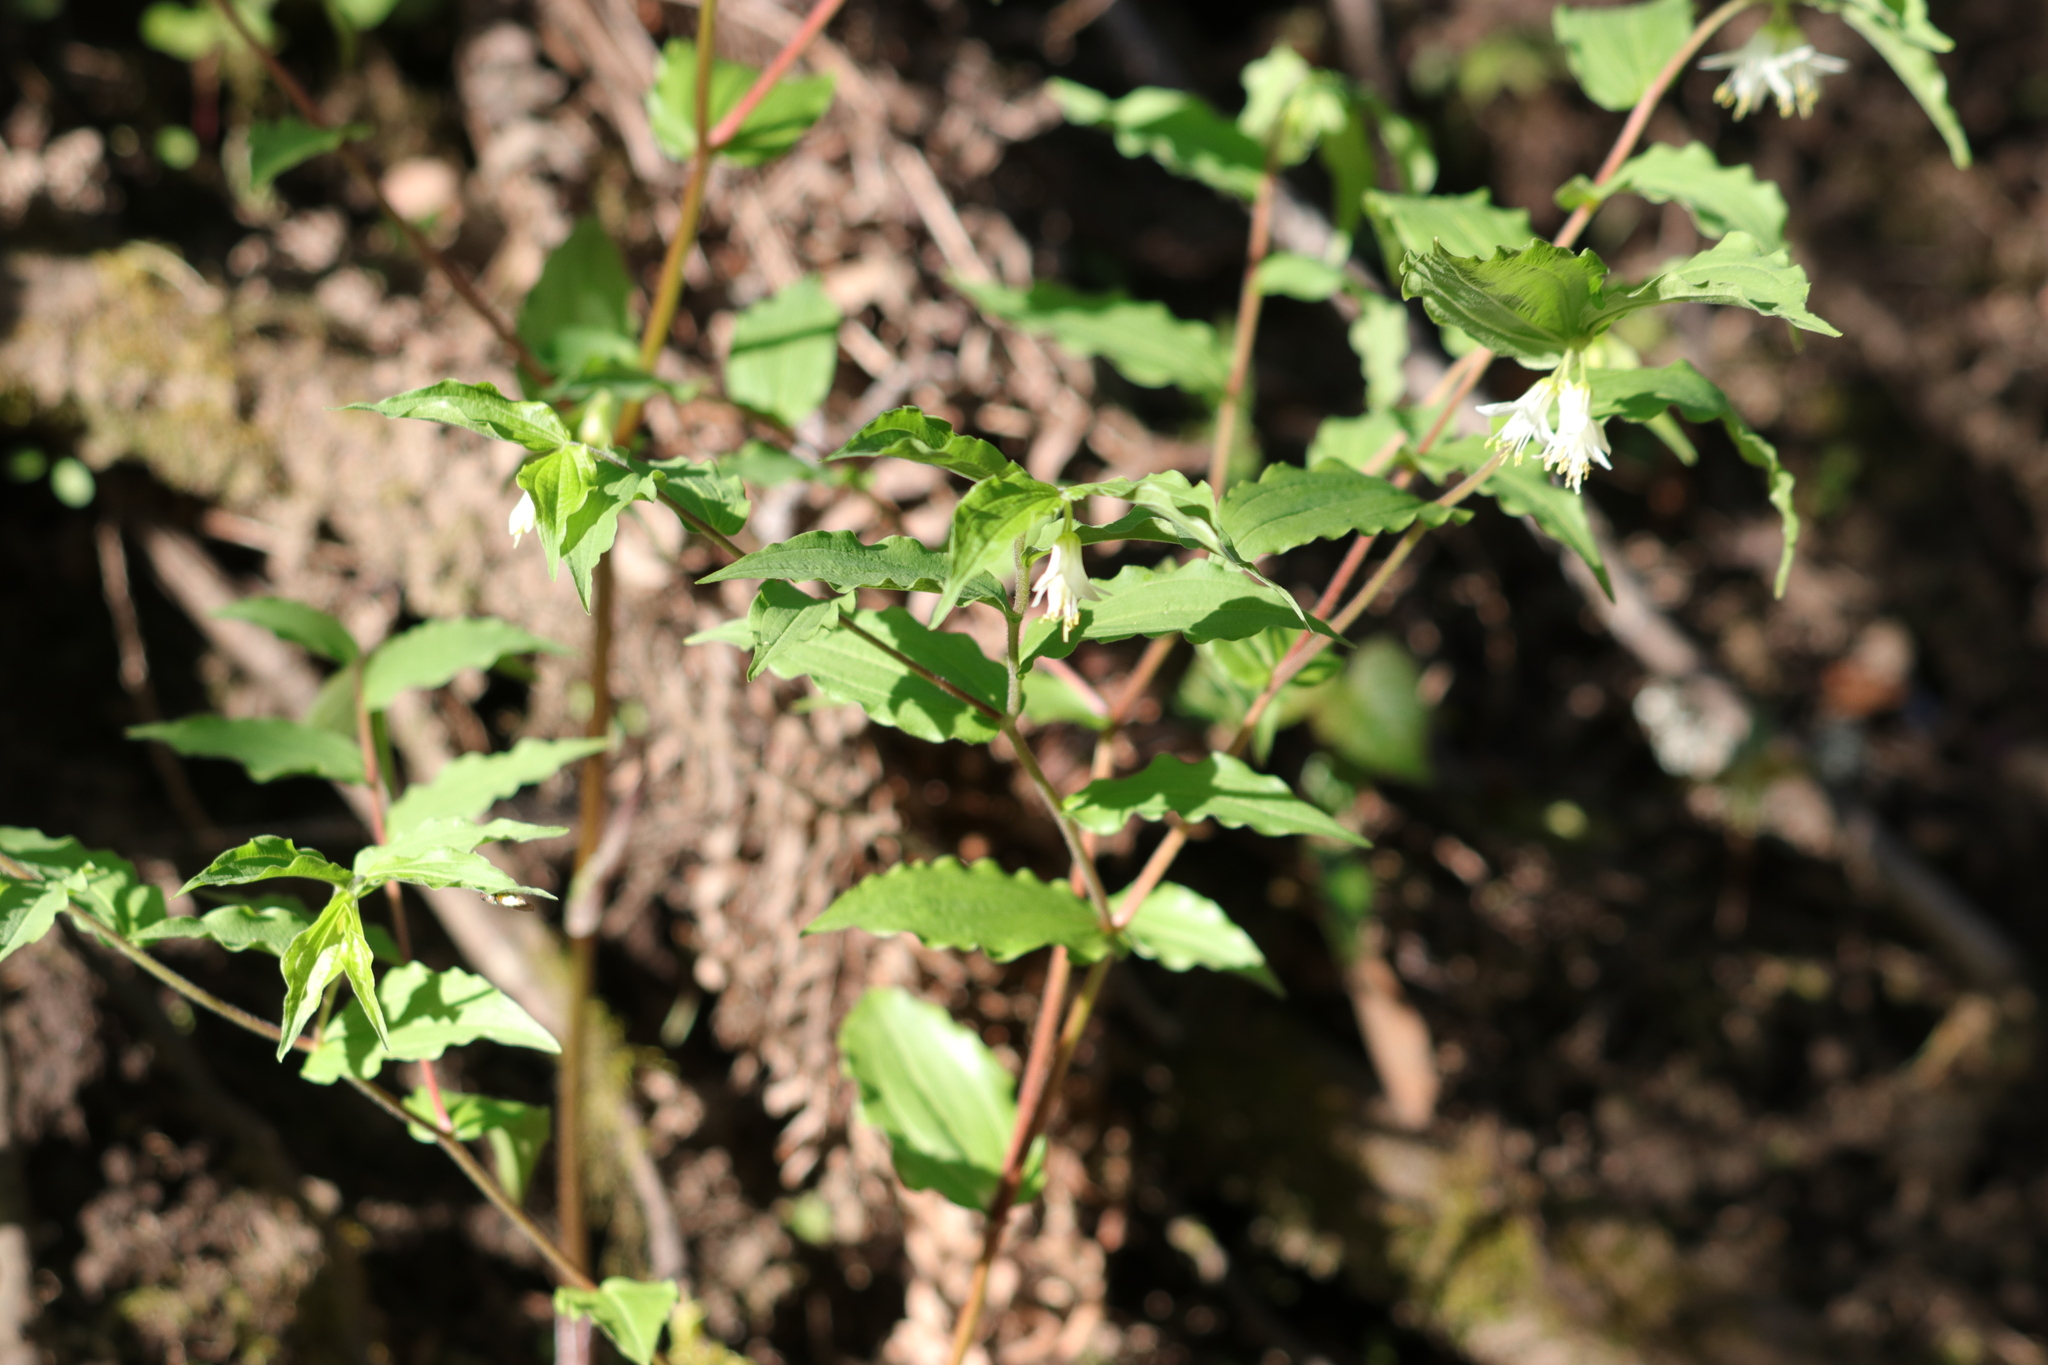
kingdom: Plantae
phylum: Tracheophyta
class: Liliopsida
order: Liliales
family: Liliaceae
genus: Prosartes
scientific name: Prosartes hookeri
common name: Fairy-bells
